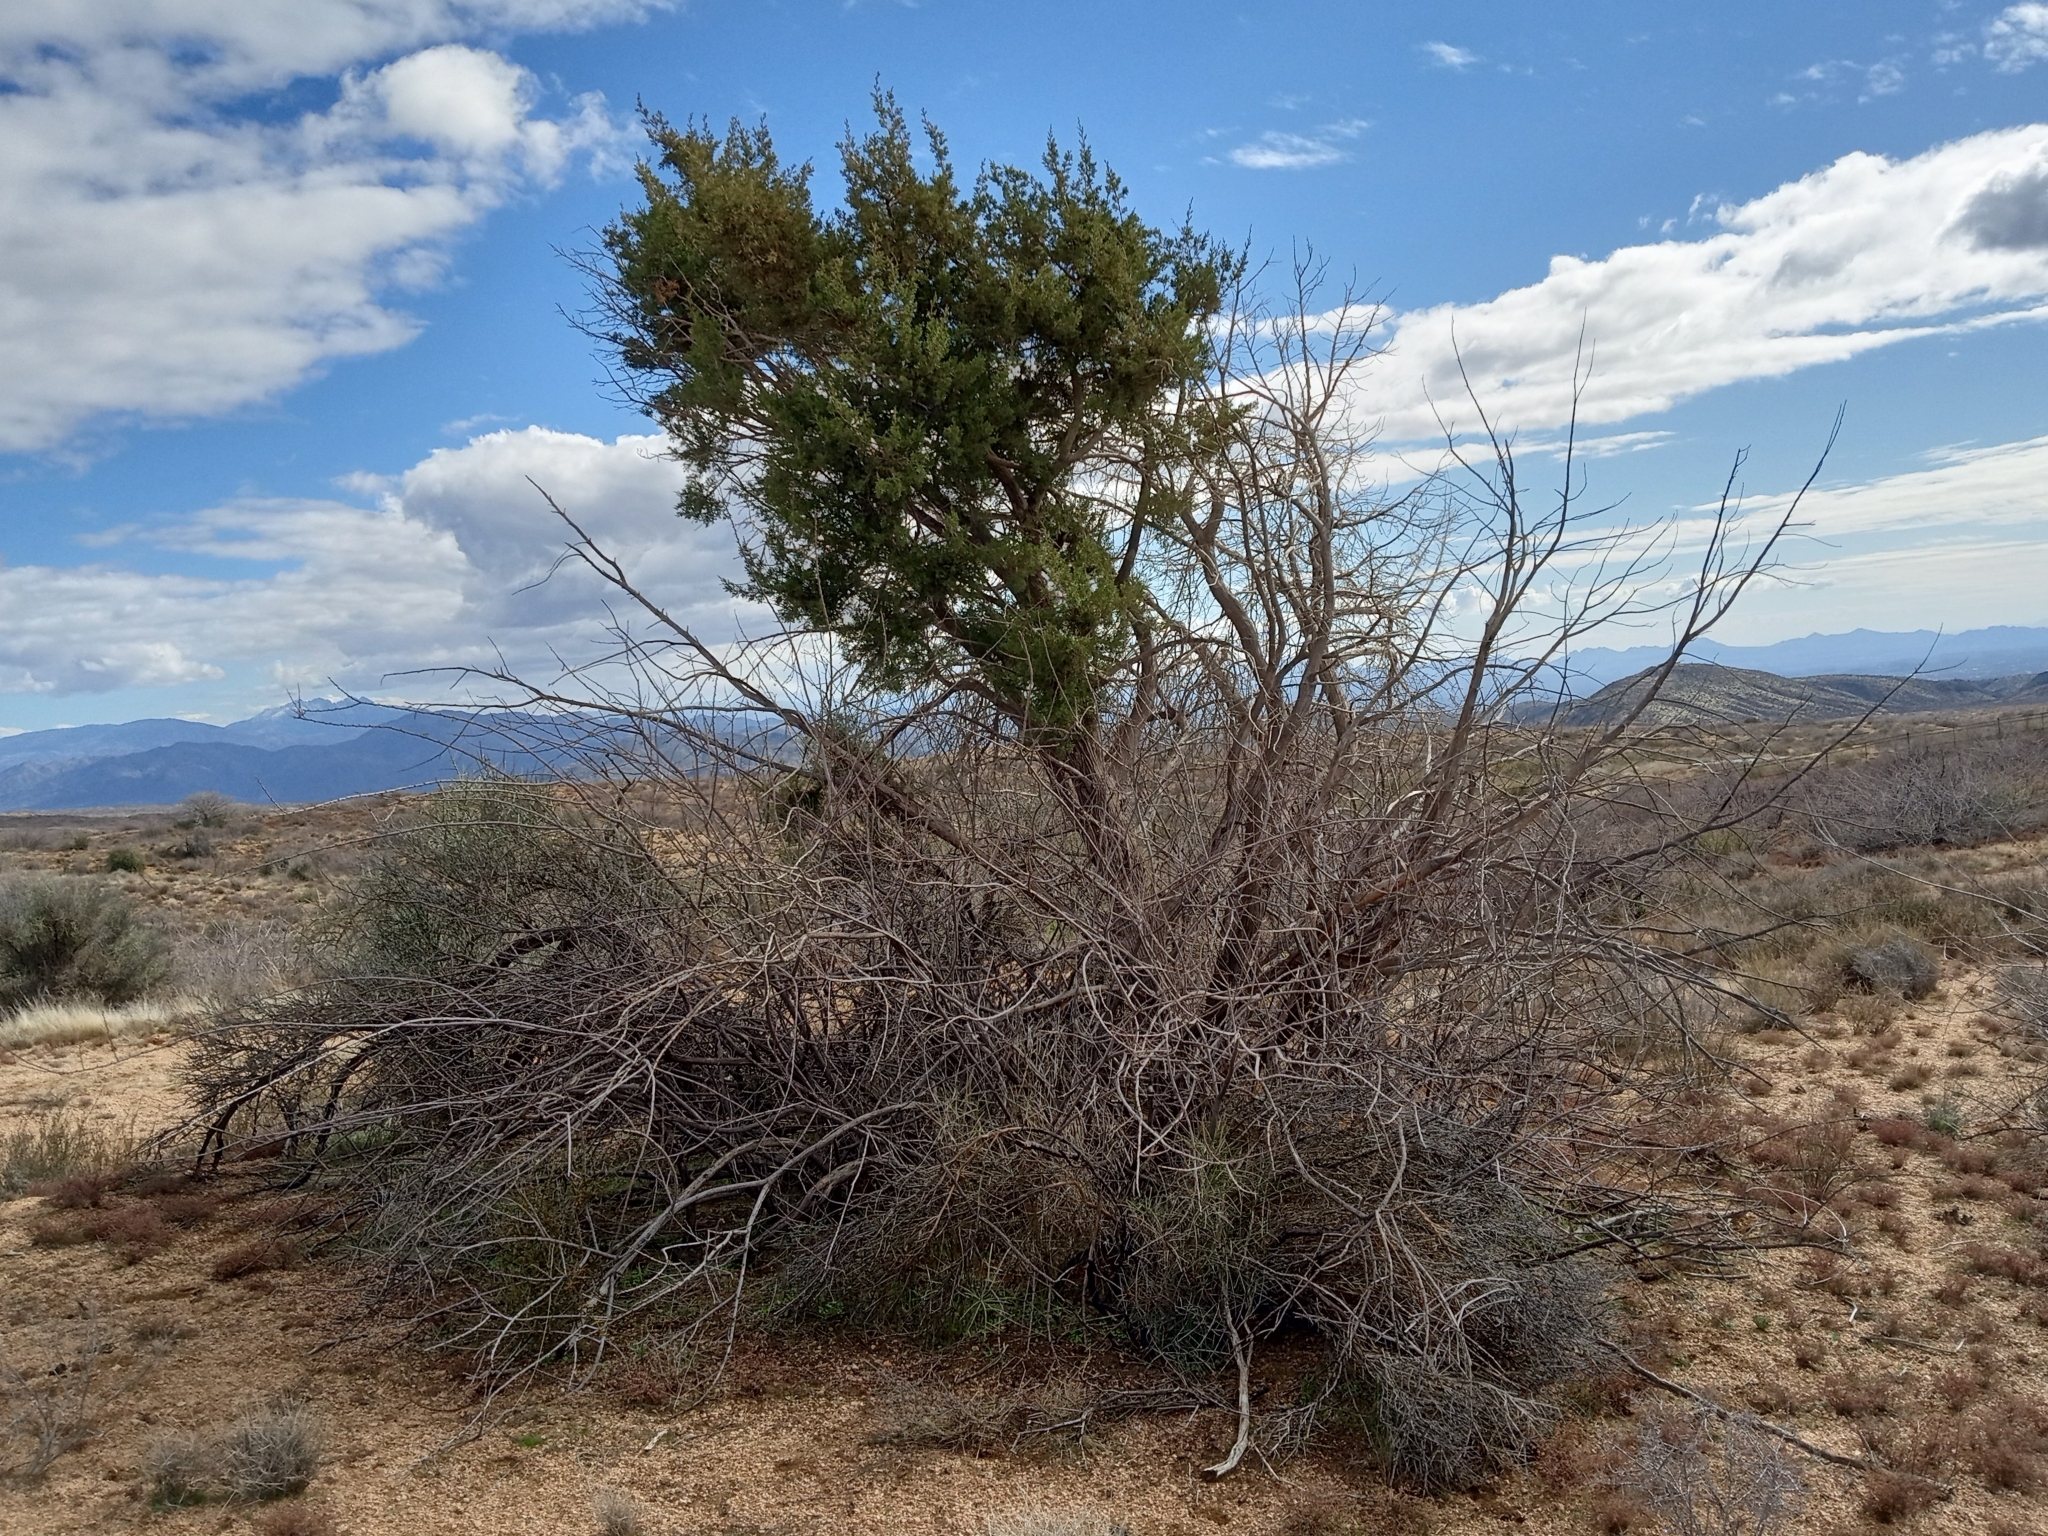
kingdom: Plantae
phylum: Tracheophyta
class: Pinopsida
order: Pinales
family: Cupressaceae
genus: Juniperus
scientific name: Juniperus arizonica
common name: Arizona juniper
